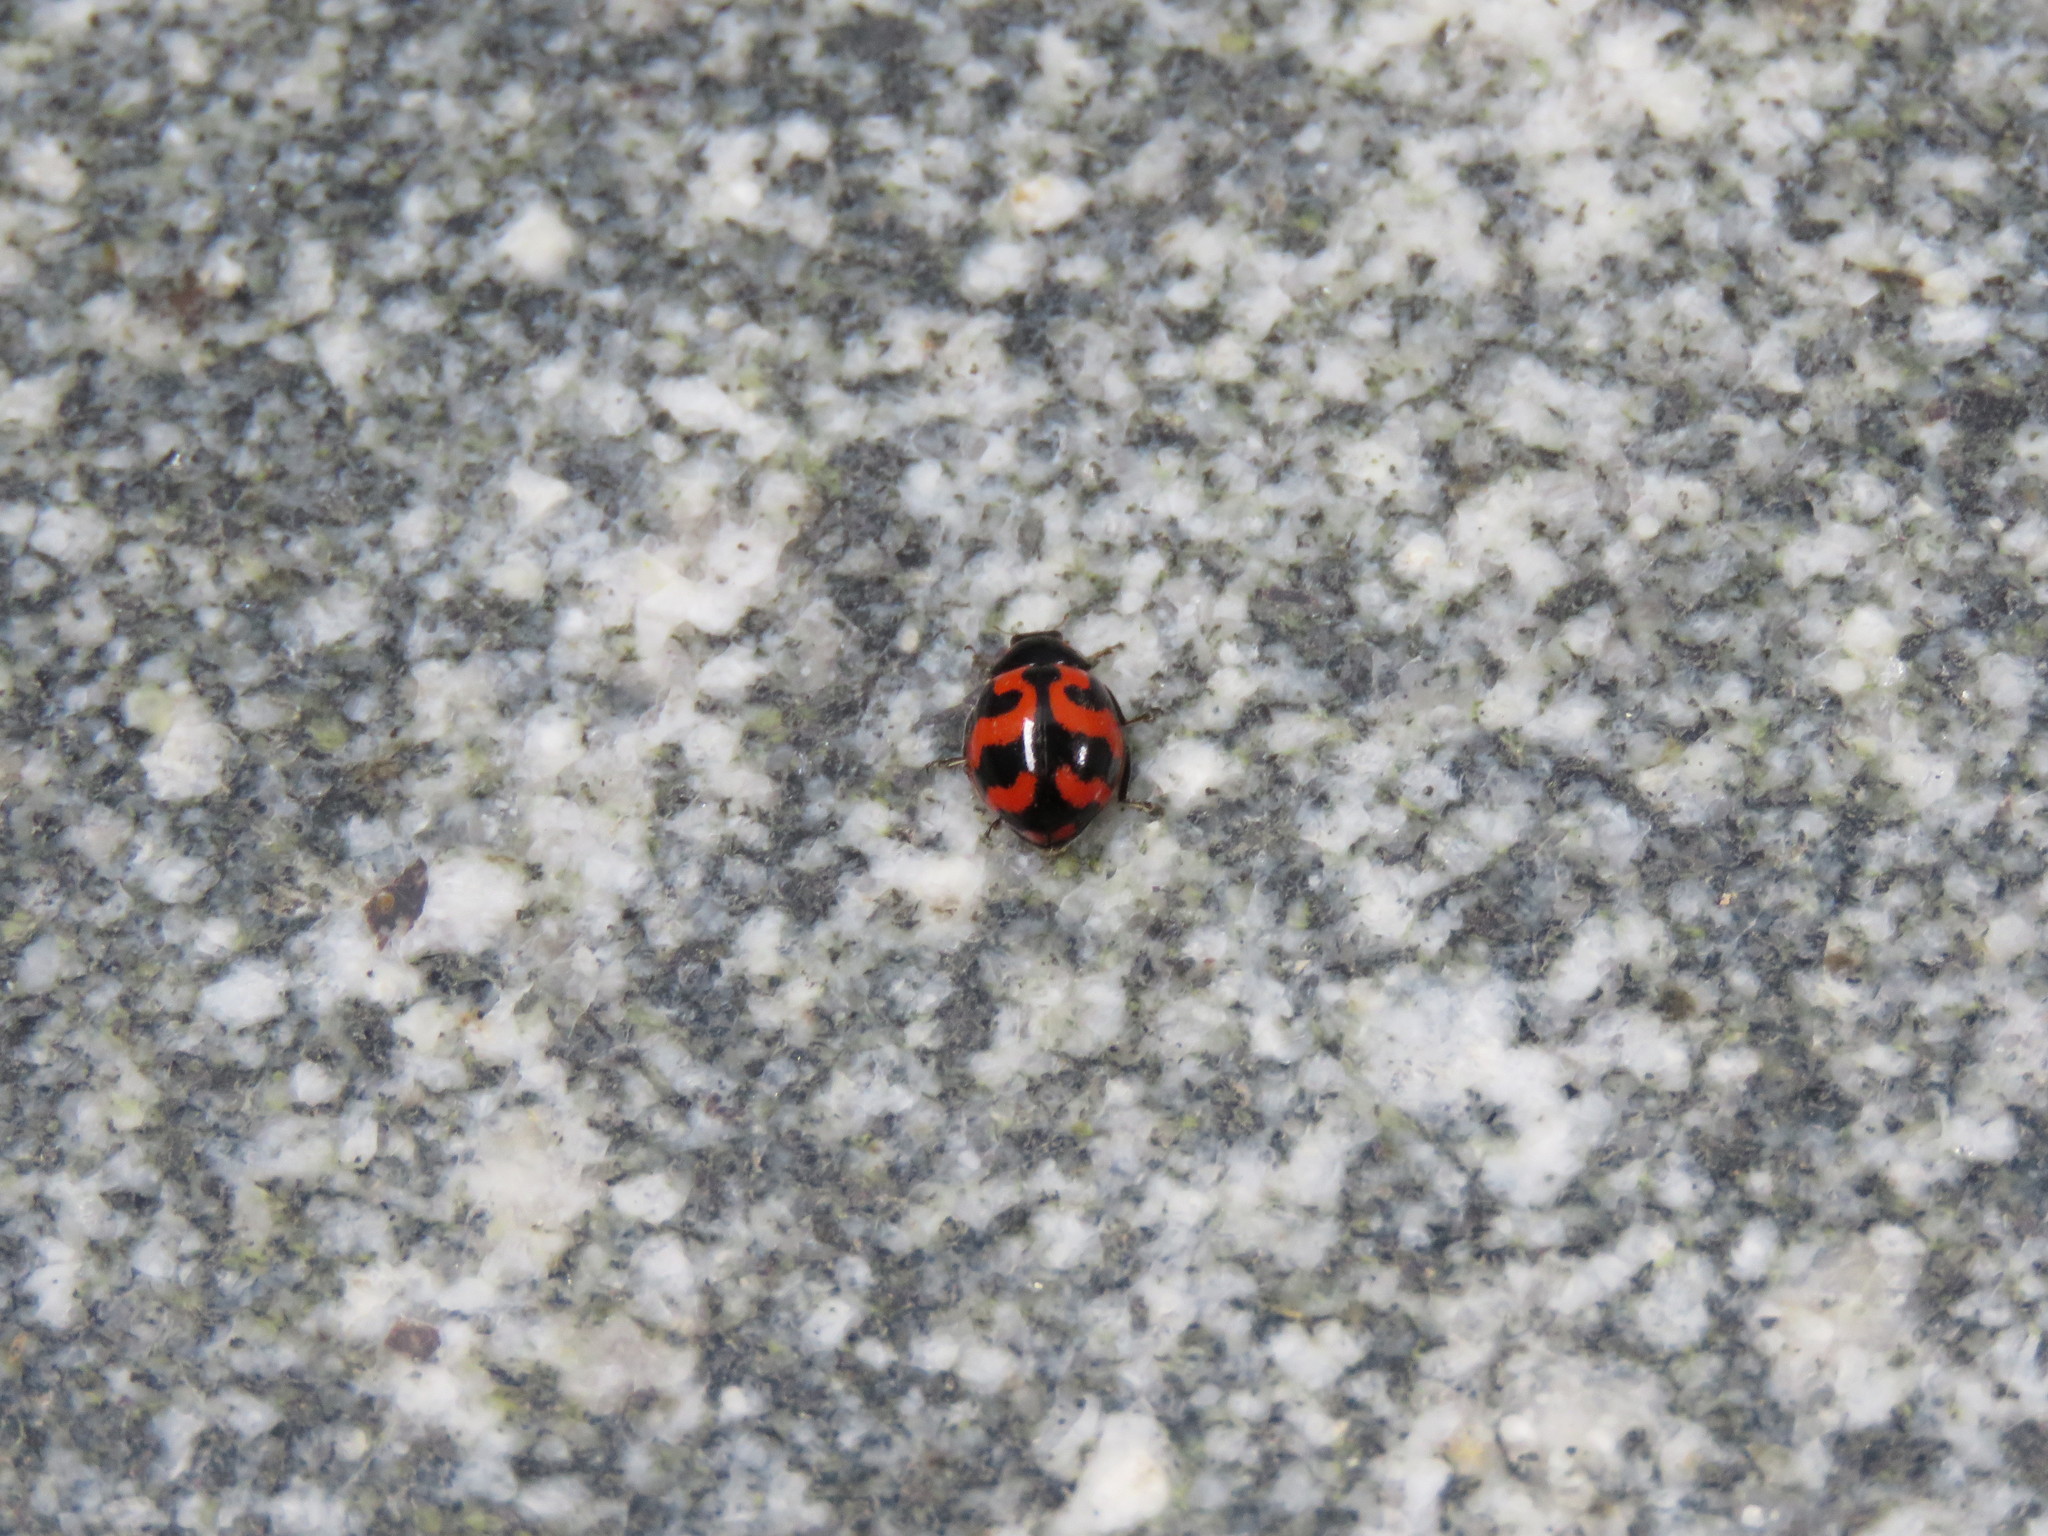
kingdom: Animalia
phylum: Arthropoda
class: Insecta
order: Coleoptera
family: Coccinellidae
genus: Coccinella
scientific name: Coccinella transversalis
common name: Transverse lady beetle
